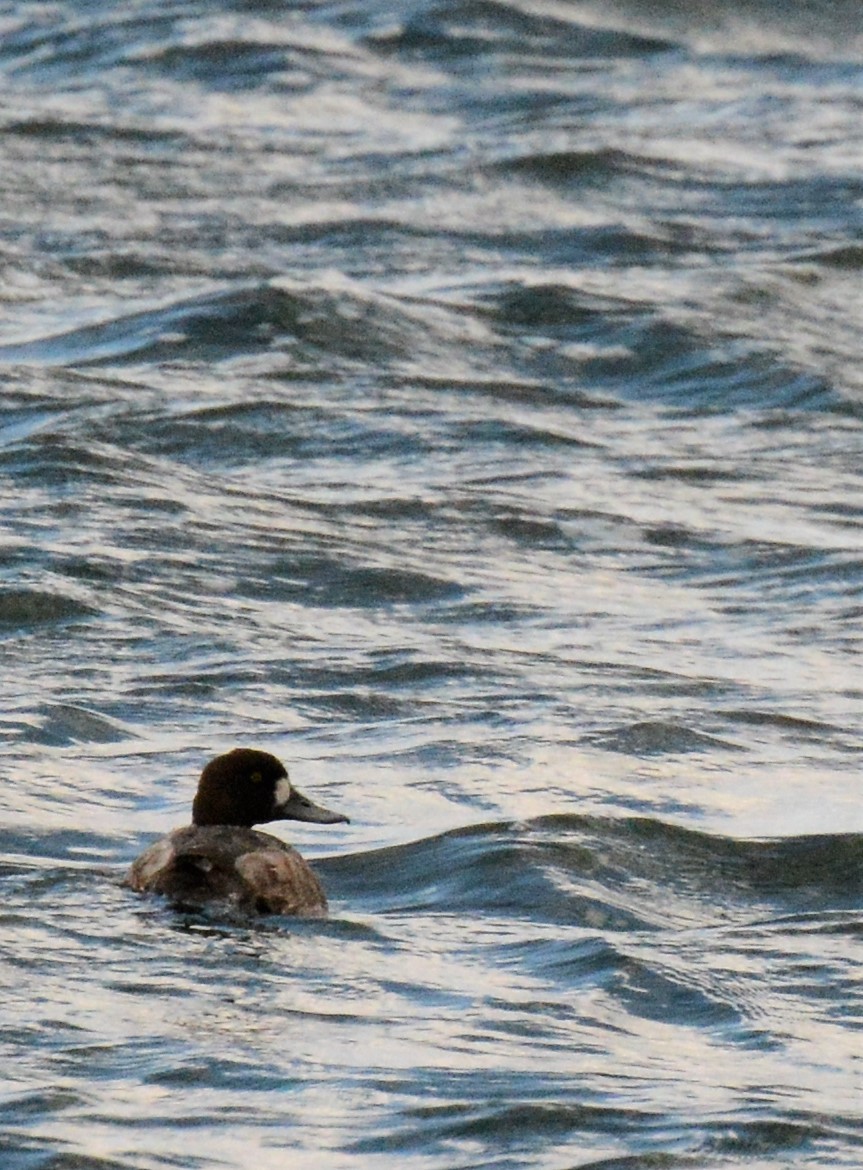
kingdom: Animalia
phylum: Chordata
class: Aves
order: Anseriformes
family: Anatidae
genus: Aythya
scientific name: Aythya marila
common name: Greater scaup
